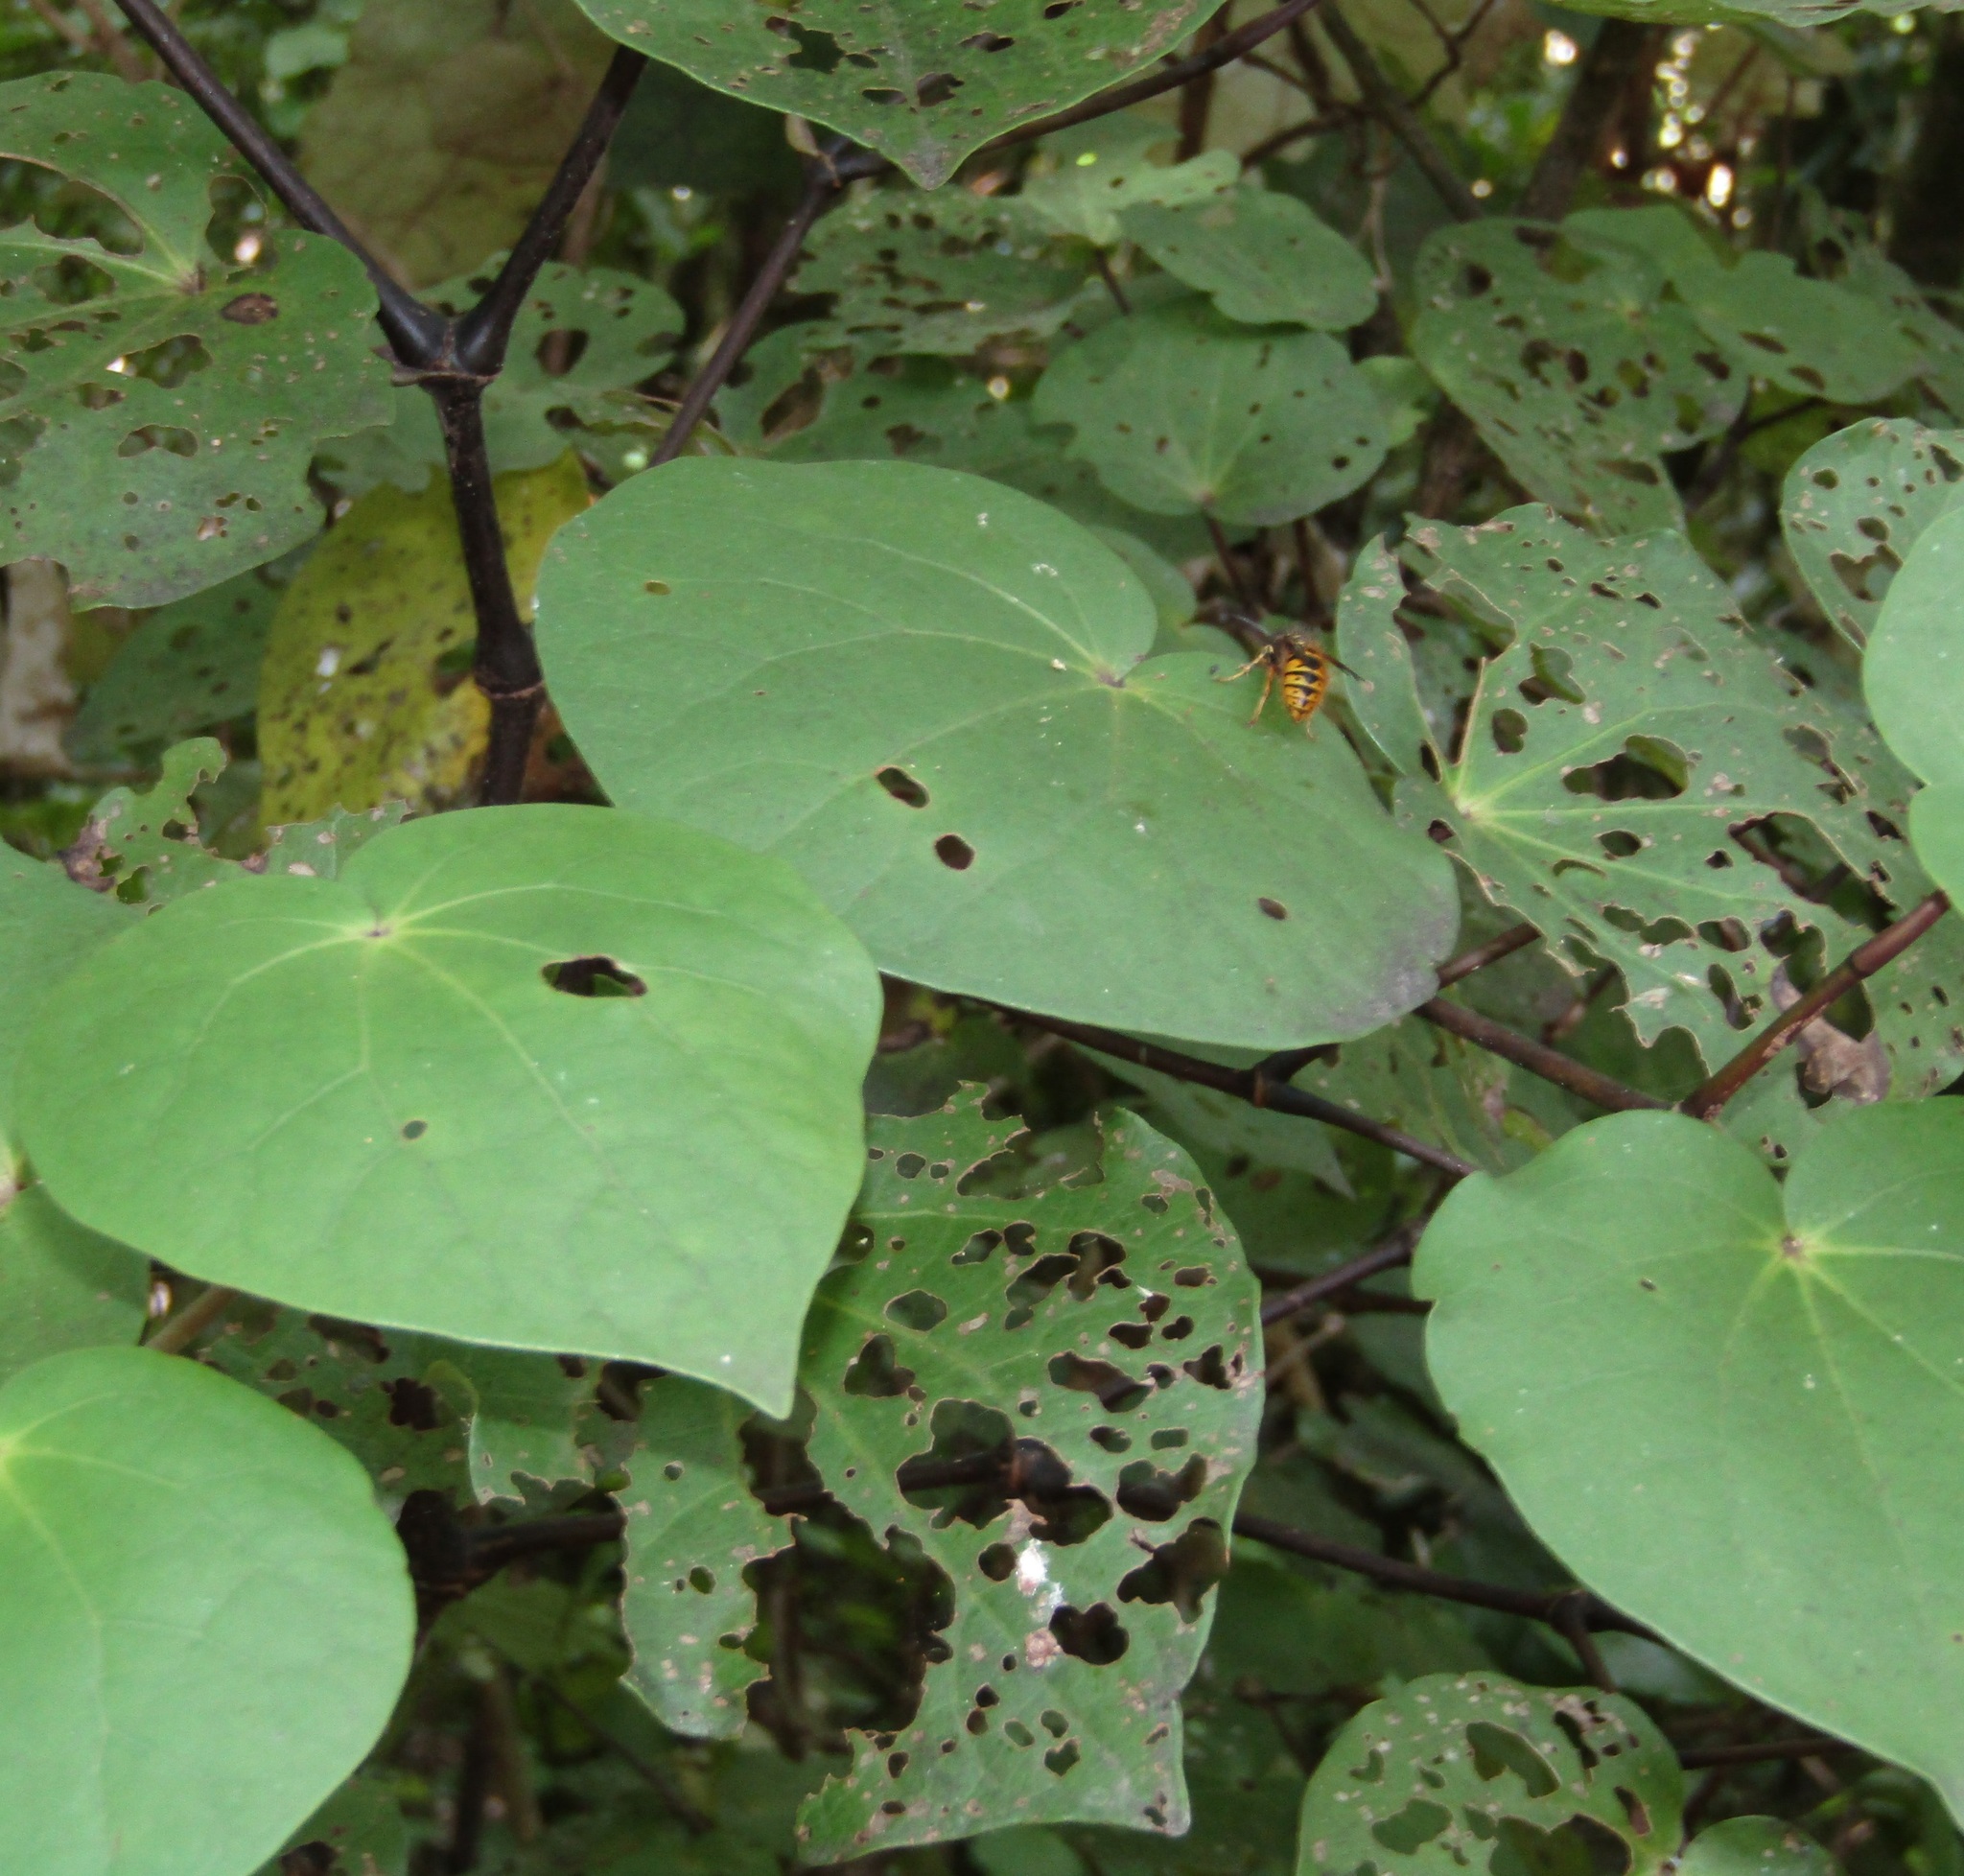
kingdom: Plantae
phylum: Tracheophyta
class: Magnoliopsida
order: Piperales
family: Piperaceae
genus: Macropiper
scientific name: Macropiper excelsum
